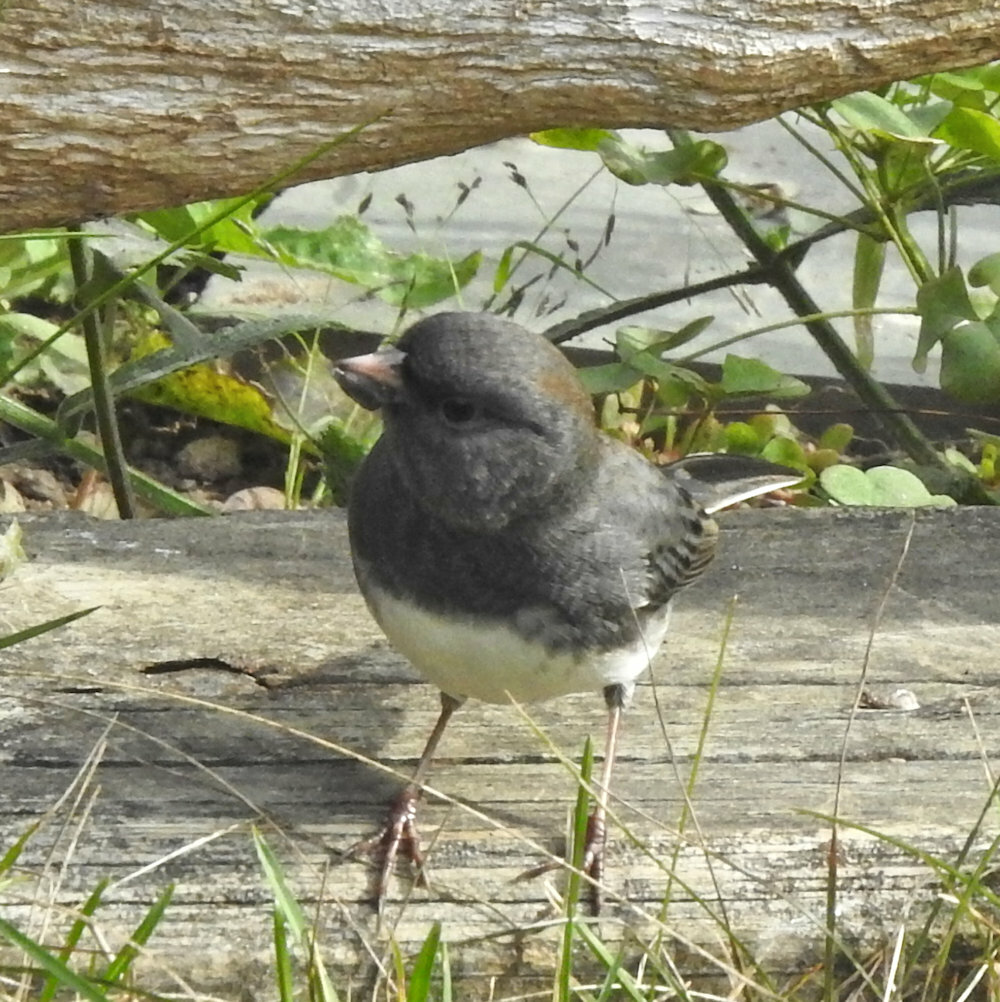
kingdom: Animalia
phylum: Chordata
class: Aves
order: Passeriformes
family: Passerellidae
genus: Junco
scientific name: Junco hyemalis
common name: Dark-eyed junco
